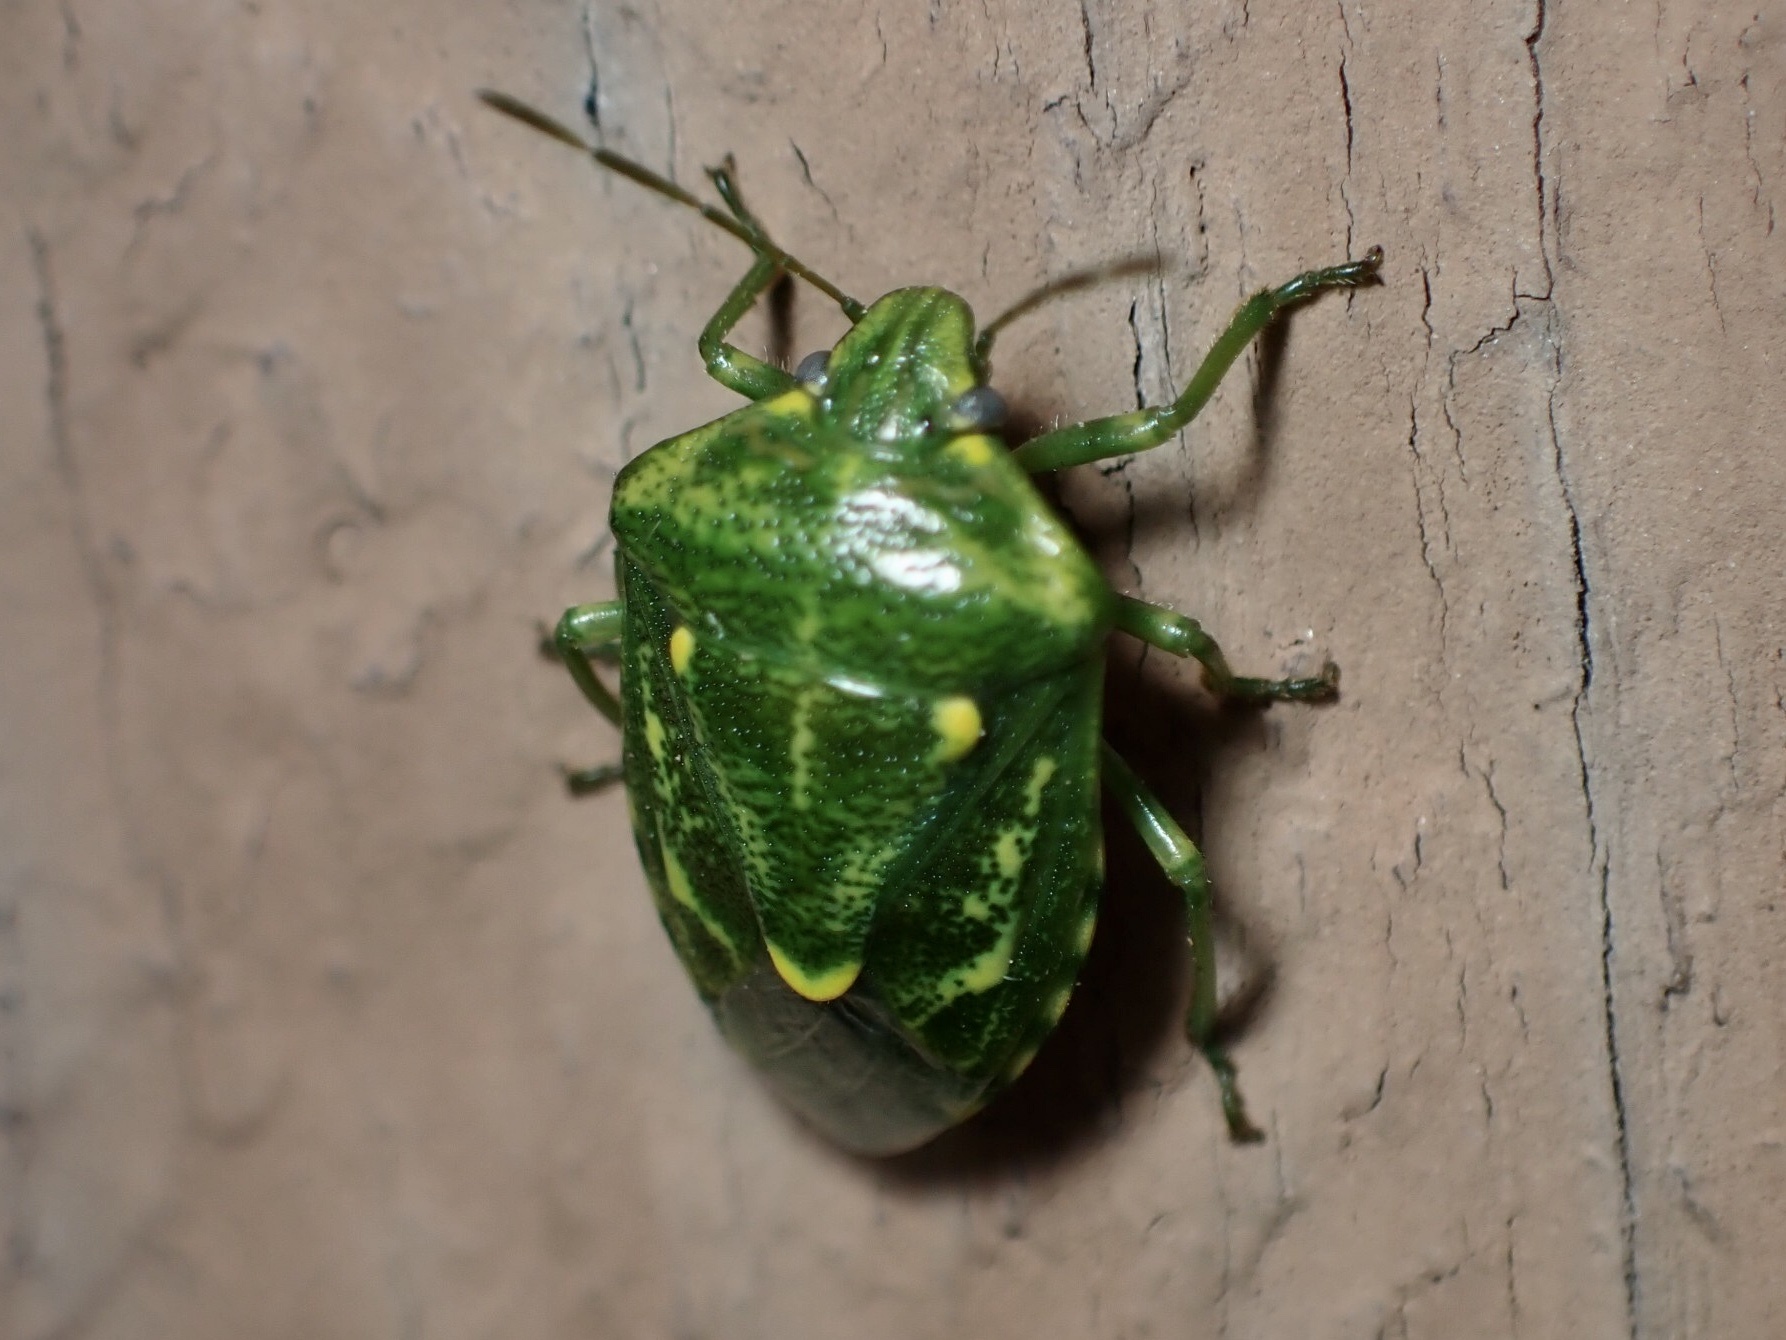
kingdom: Animalia
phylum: Arthropoda
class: Insecta
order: Hemiptera
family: Pentatomidae
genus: Banasa
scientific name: Banasa euchlora
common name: Cedar berry bug
